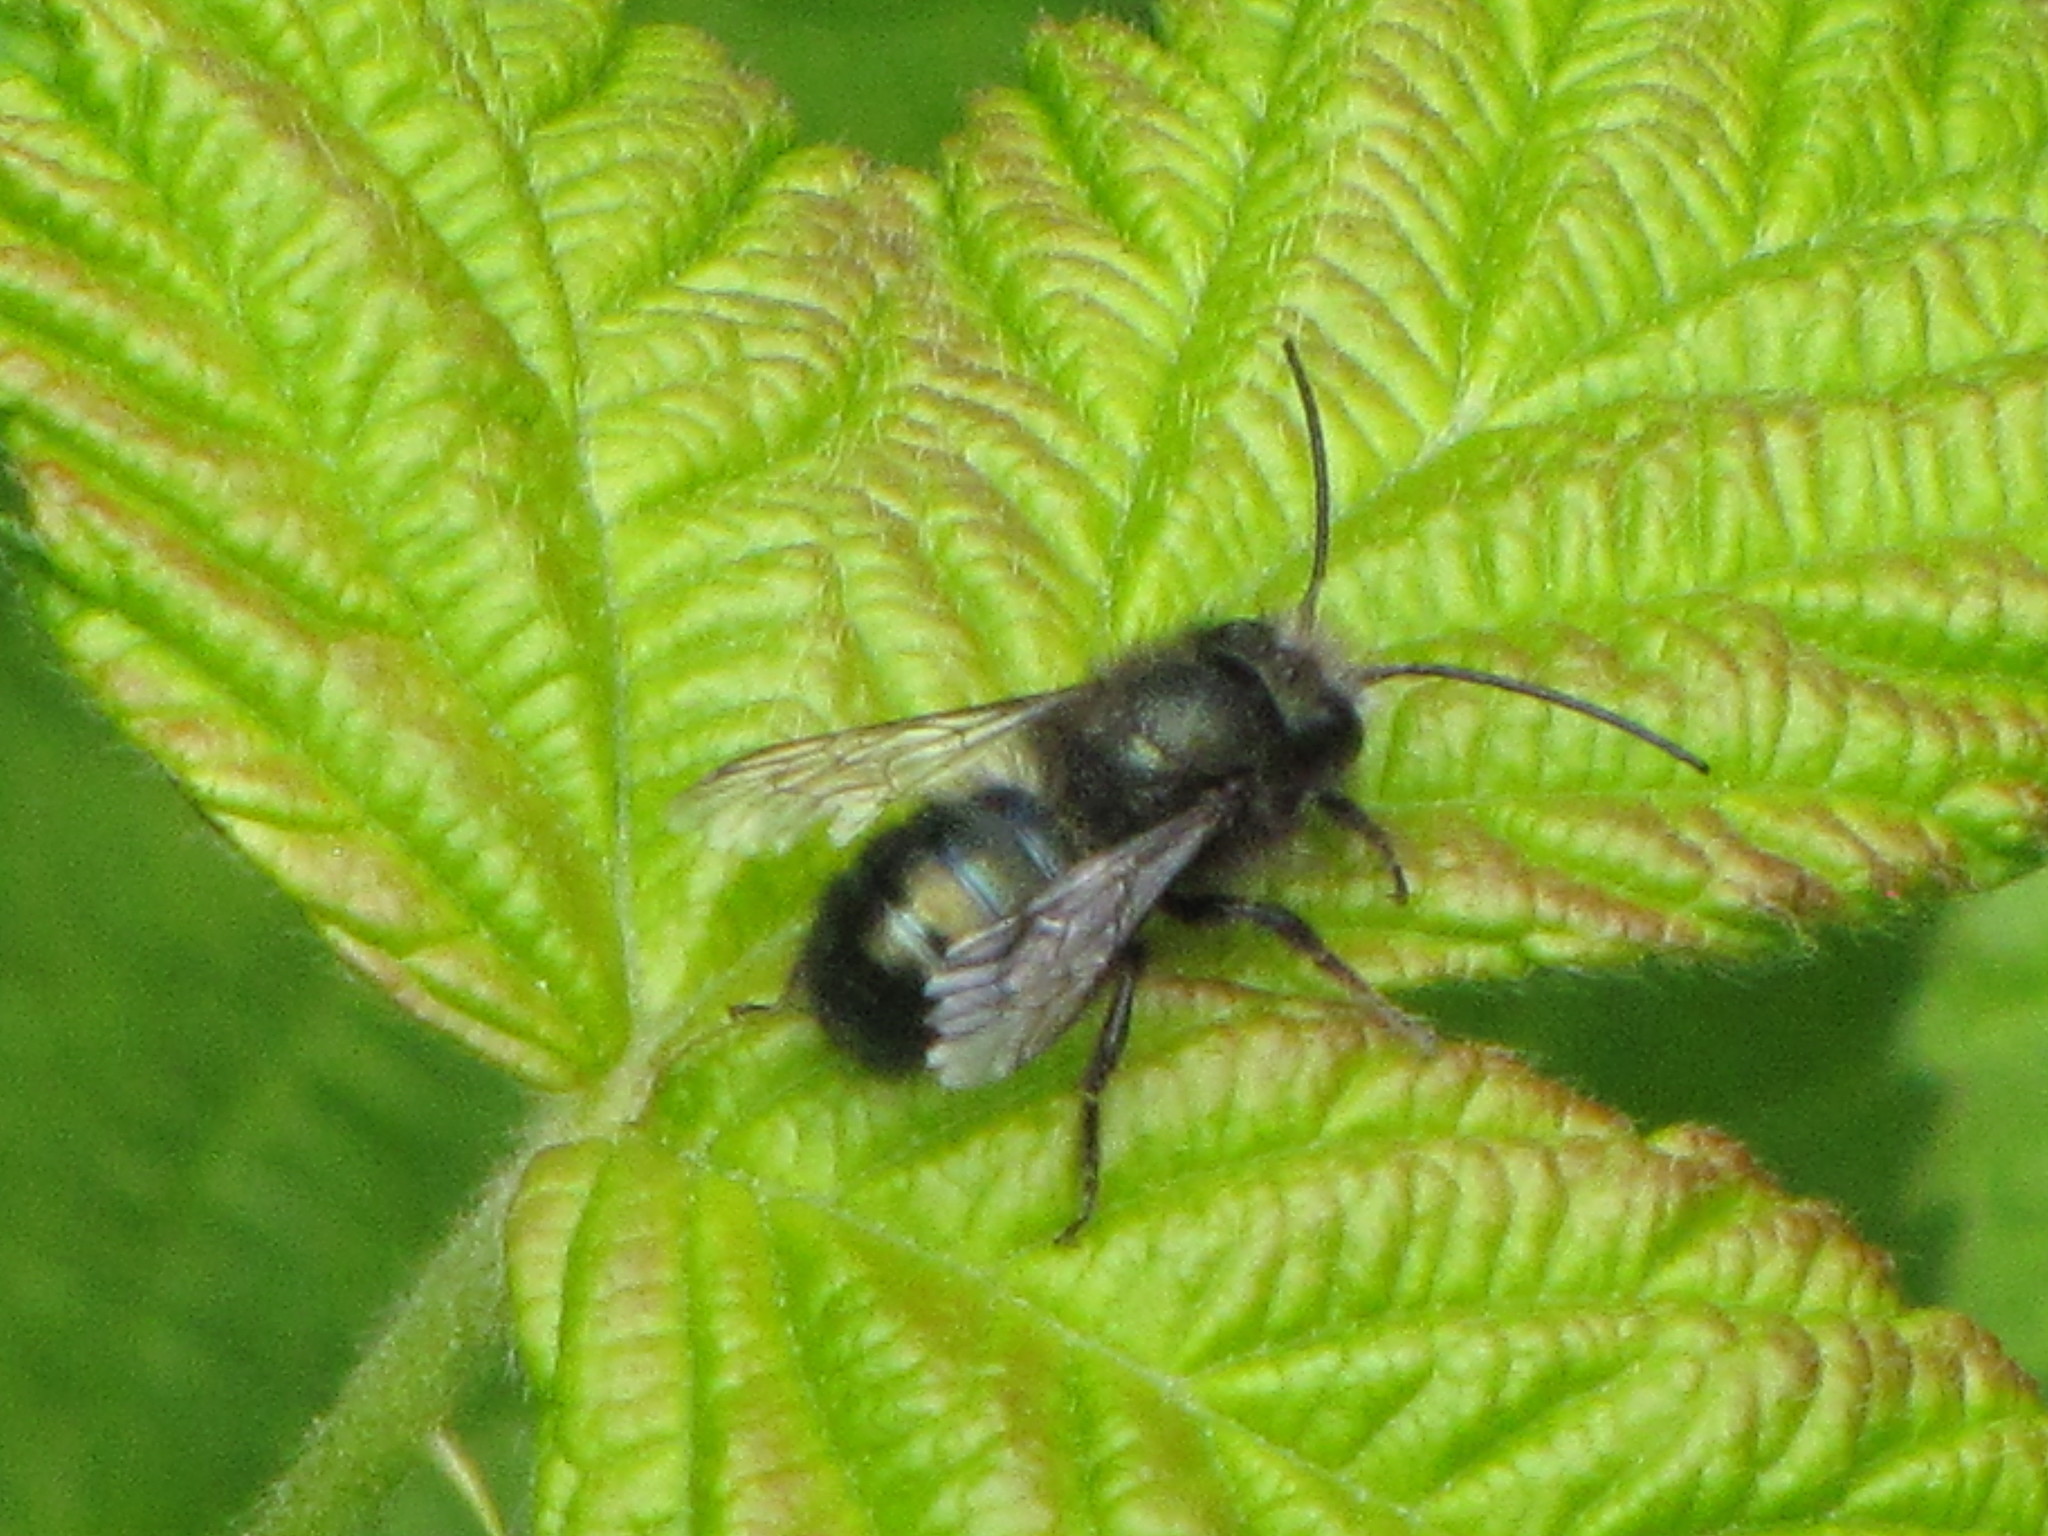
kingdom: Animalia
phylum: Arthropoda
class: Insecta
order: Hymenoptera
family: Megachilidae
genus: Osmia
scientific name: Osmia lignaria
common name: Blue orchard bee
